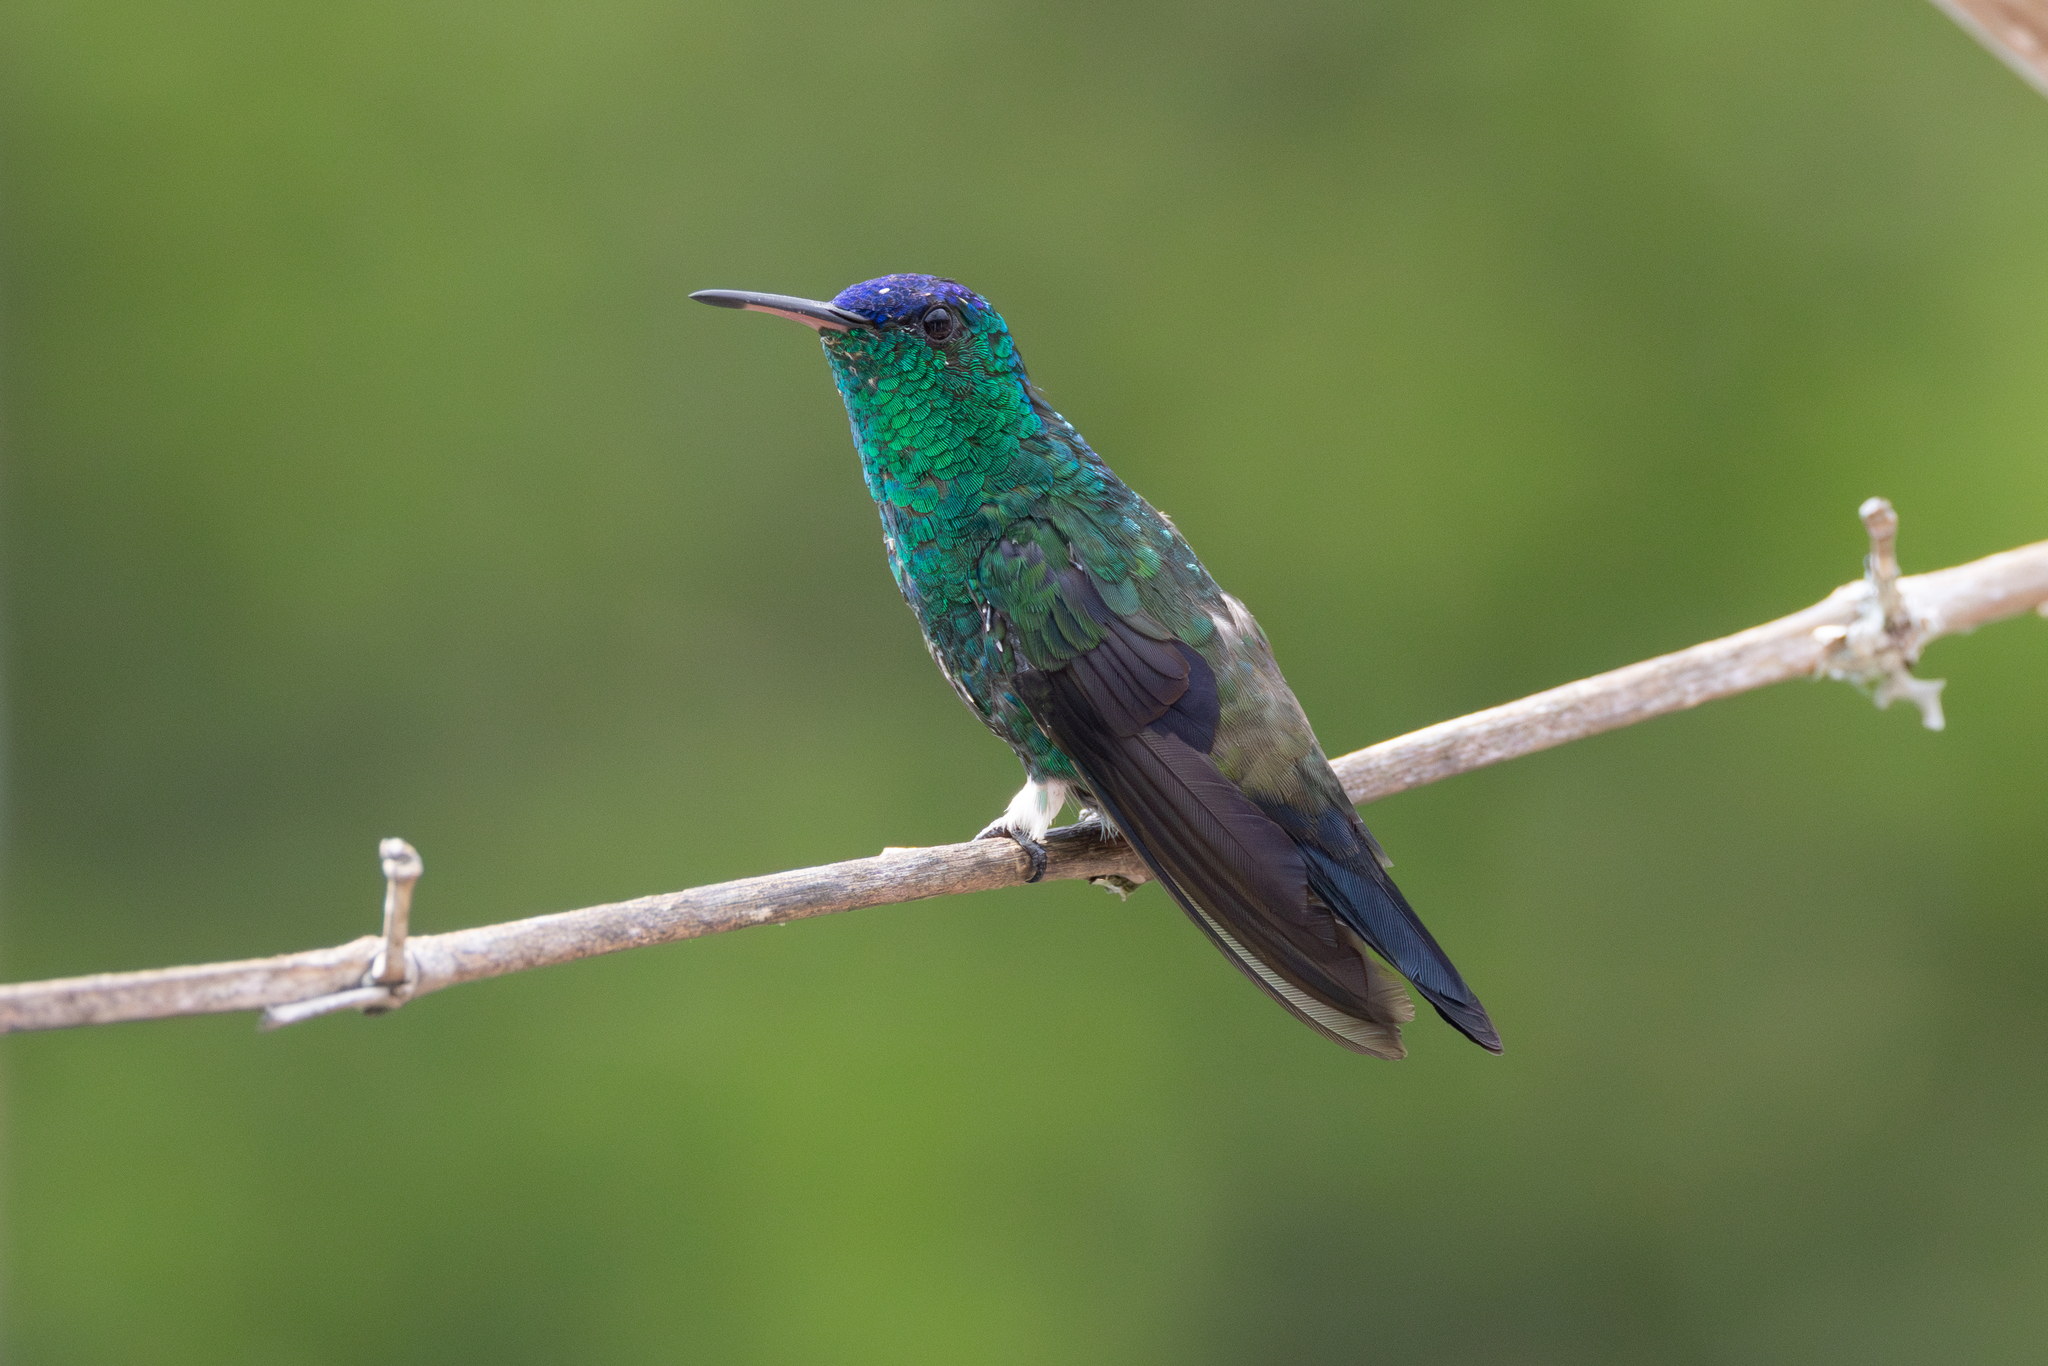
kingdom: Animalia
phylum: Chordata
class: Aves
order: Apodiformes
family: Trochilidae
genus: Saucerottia
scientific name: Saucerottia cyanifrons
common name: Indigo-capped hummingbird
